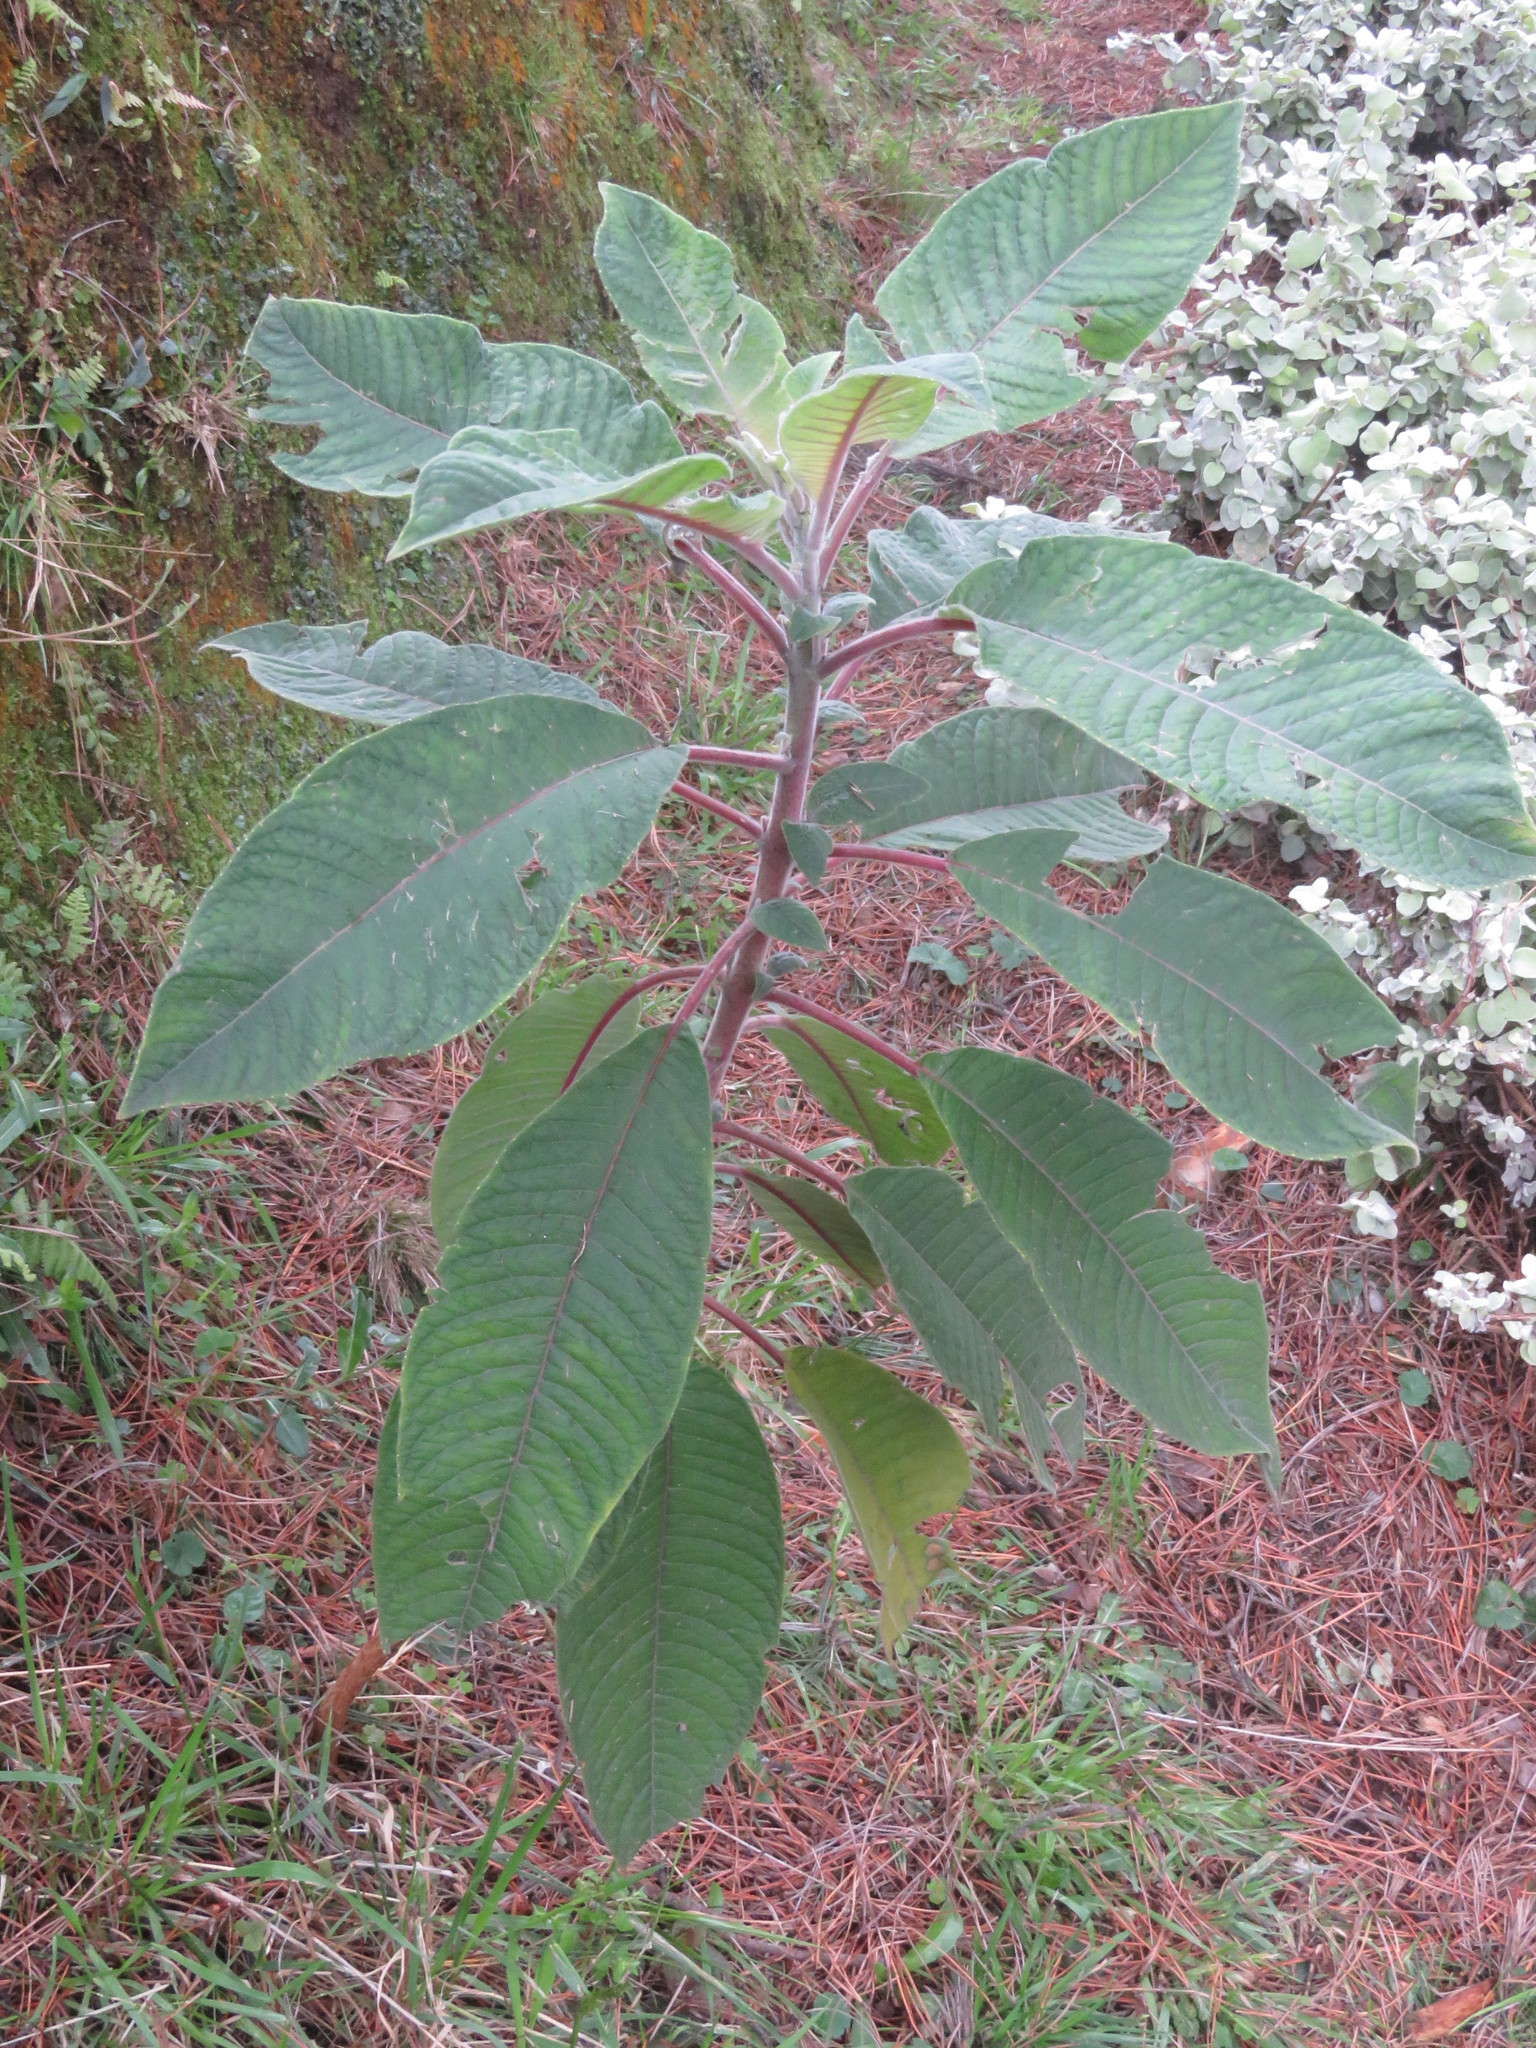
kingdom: Plantae
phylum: Tracheophyta
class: Magnoliopsida
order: Myrtales
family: Onagraceae
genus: Fuchsia
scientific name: Fuchsia boliviana
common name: Bolivian fuchsia
